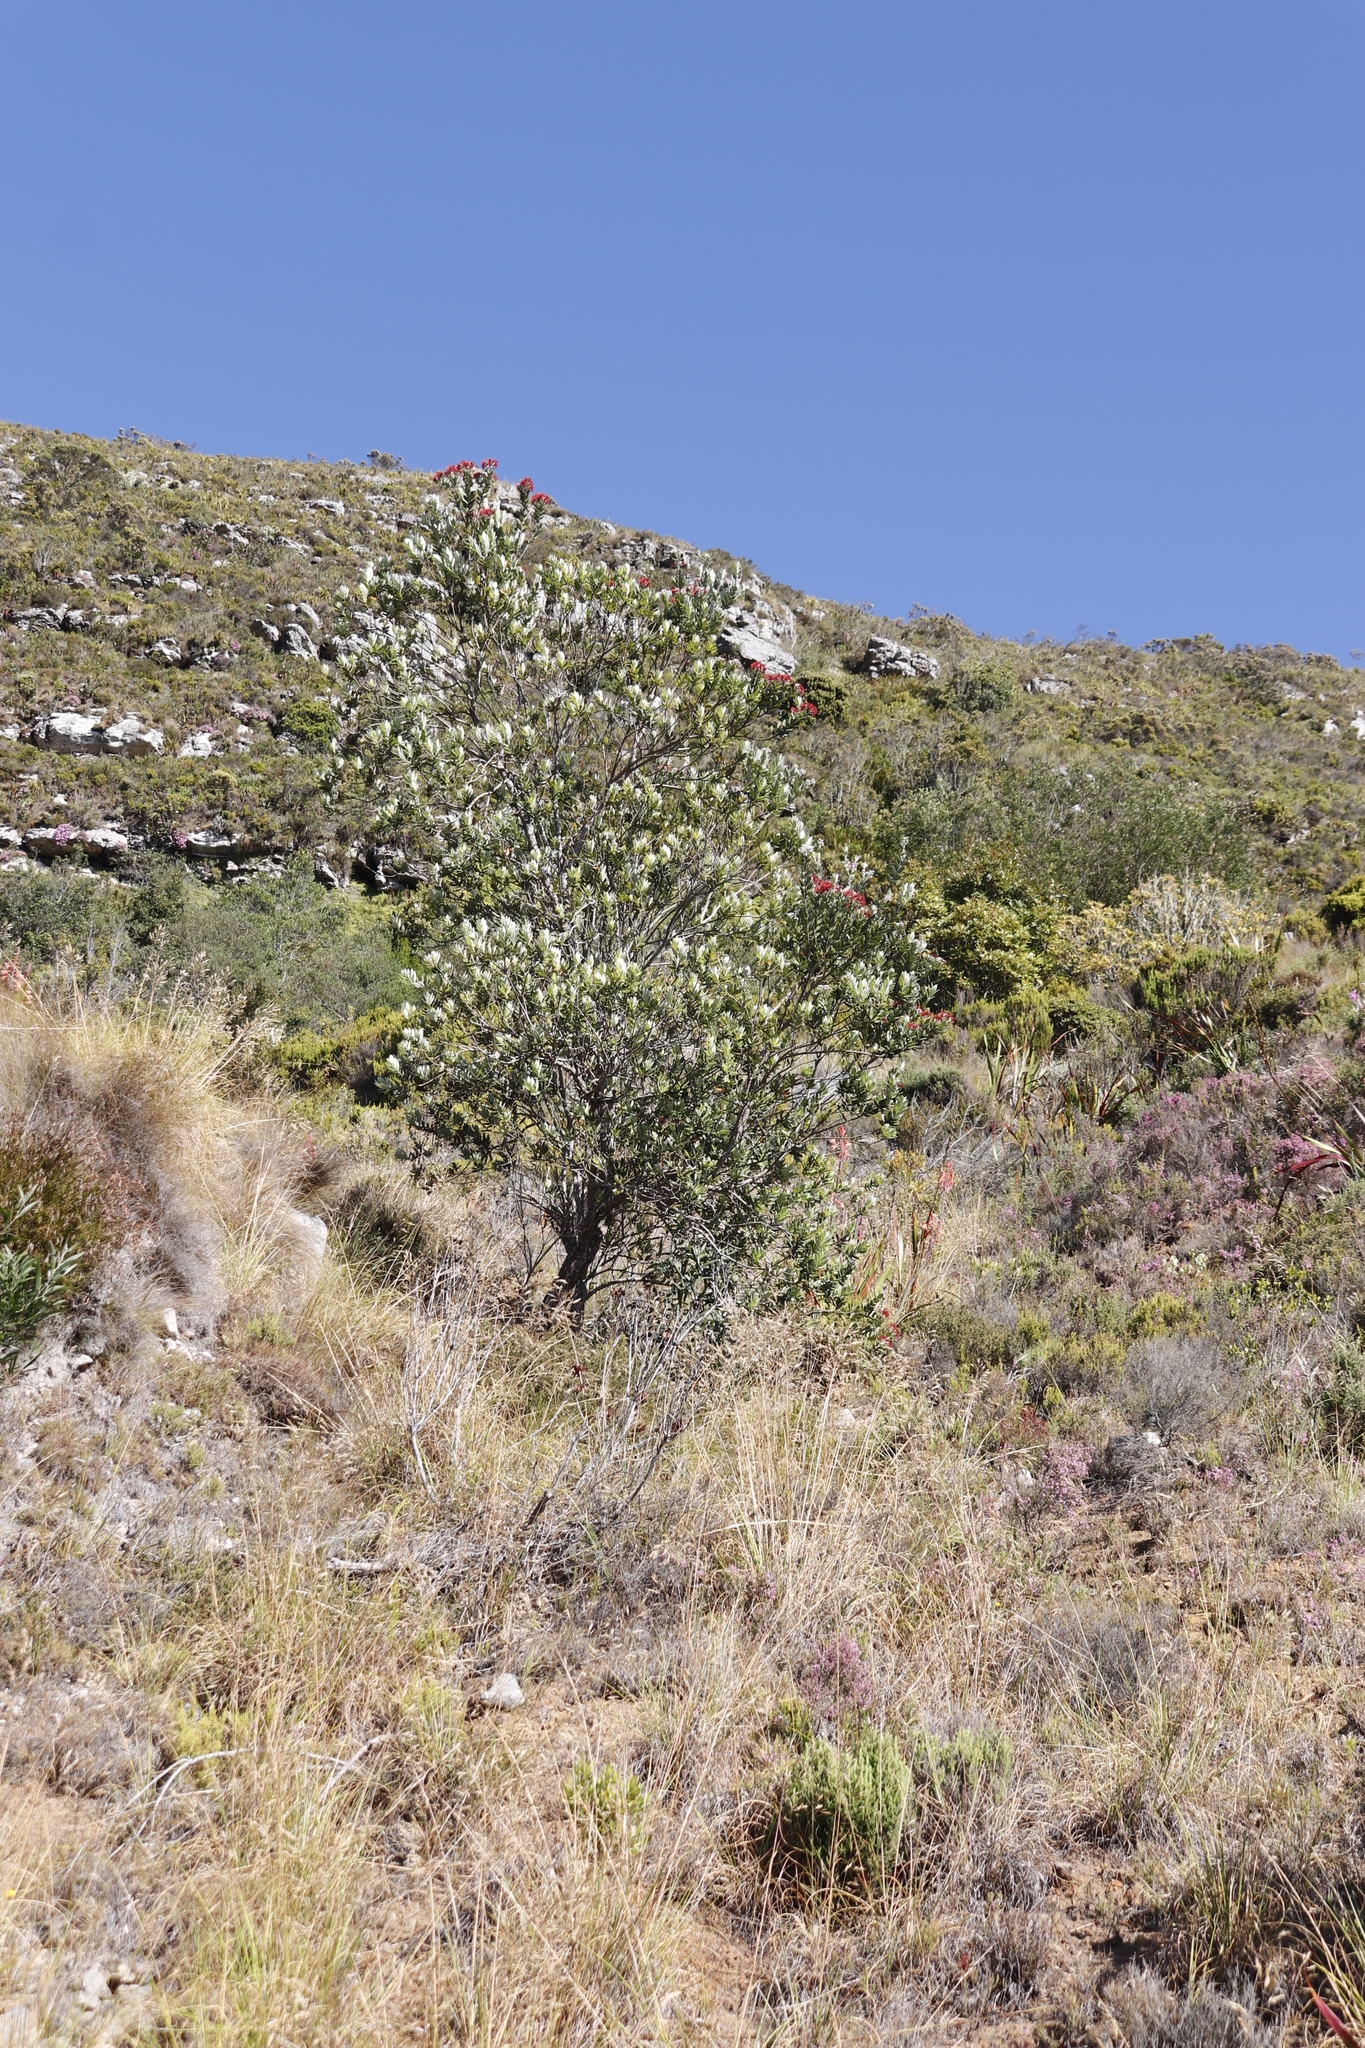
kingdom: Plantae
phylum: Tracheophyta
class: Magnoliopsida
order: Myrtales
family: Myrtaceae
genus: Metrosideros
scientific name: Metrosideros excelsa
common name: New zealand christmastree
